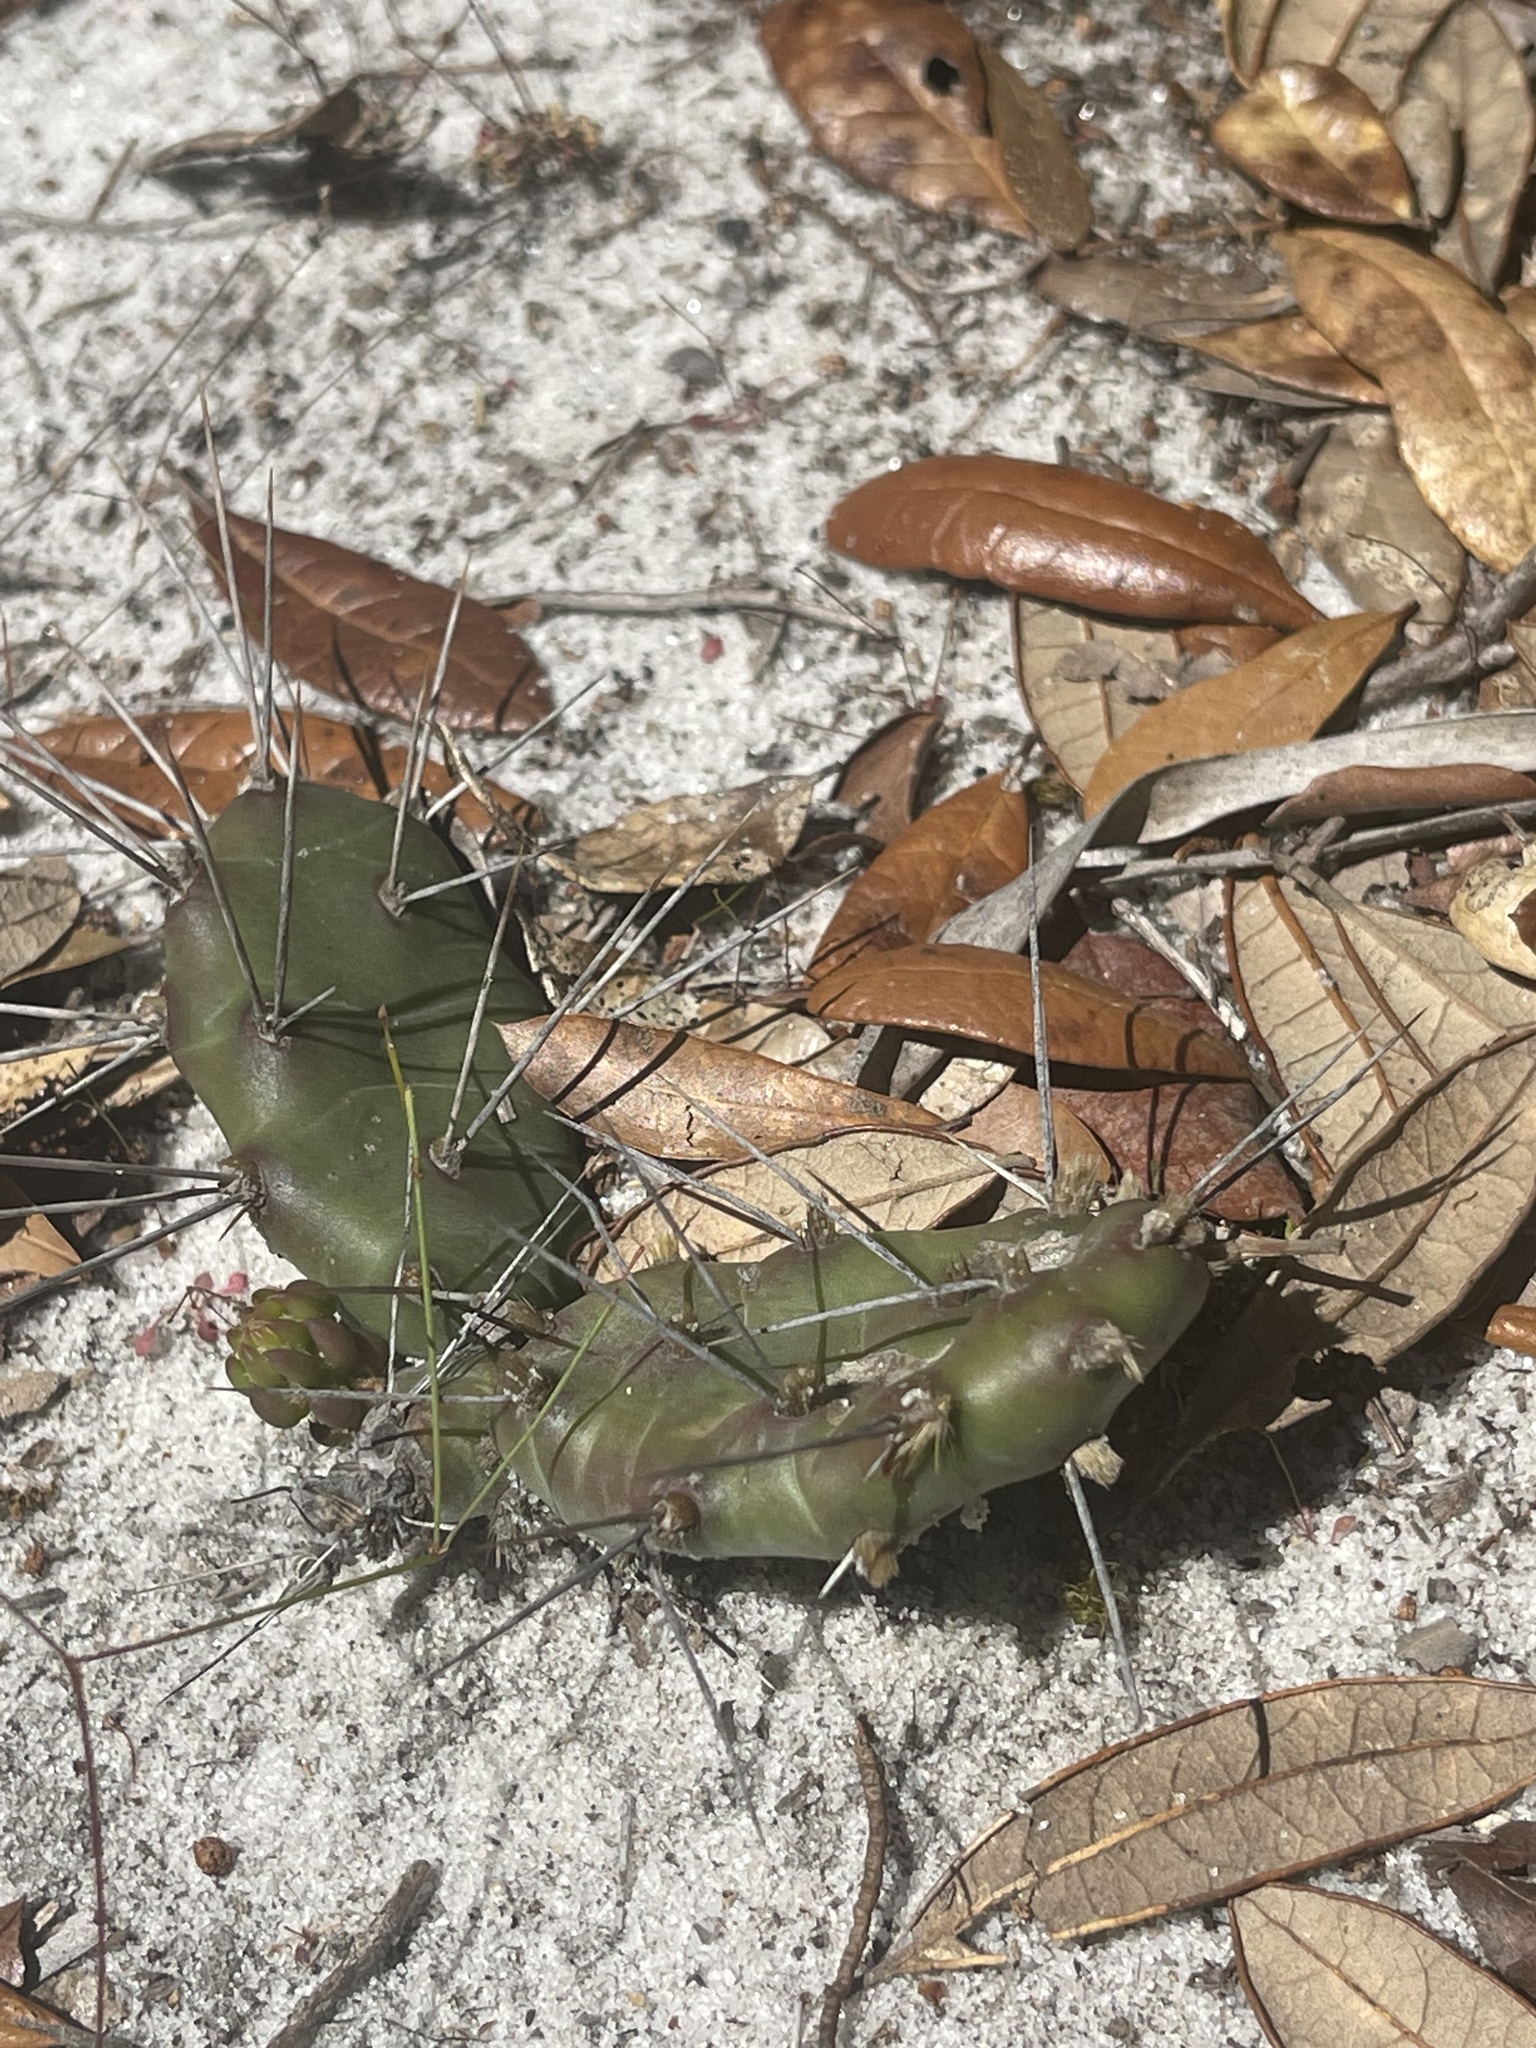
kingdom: Plantae
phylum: Tracheophyta
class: Magnoliopsida
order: Caryophyllales
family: Cactaceae
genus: Opuntia
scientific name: Opuntia drummondii
